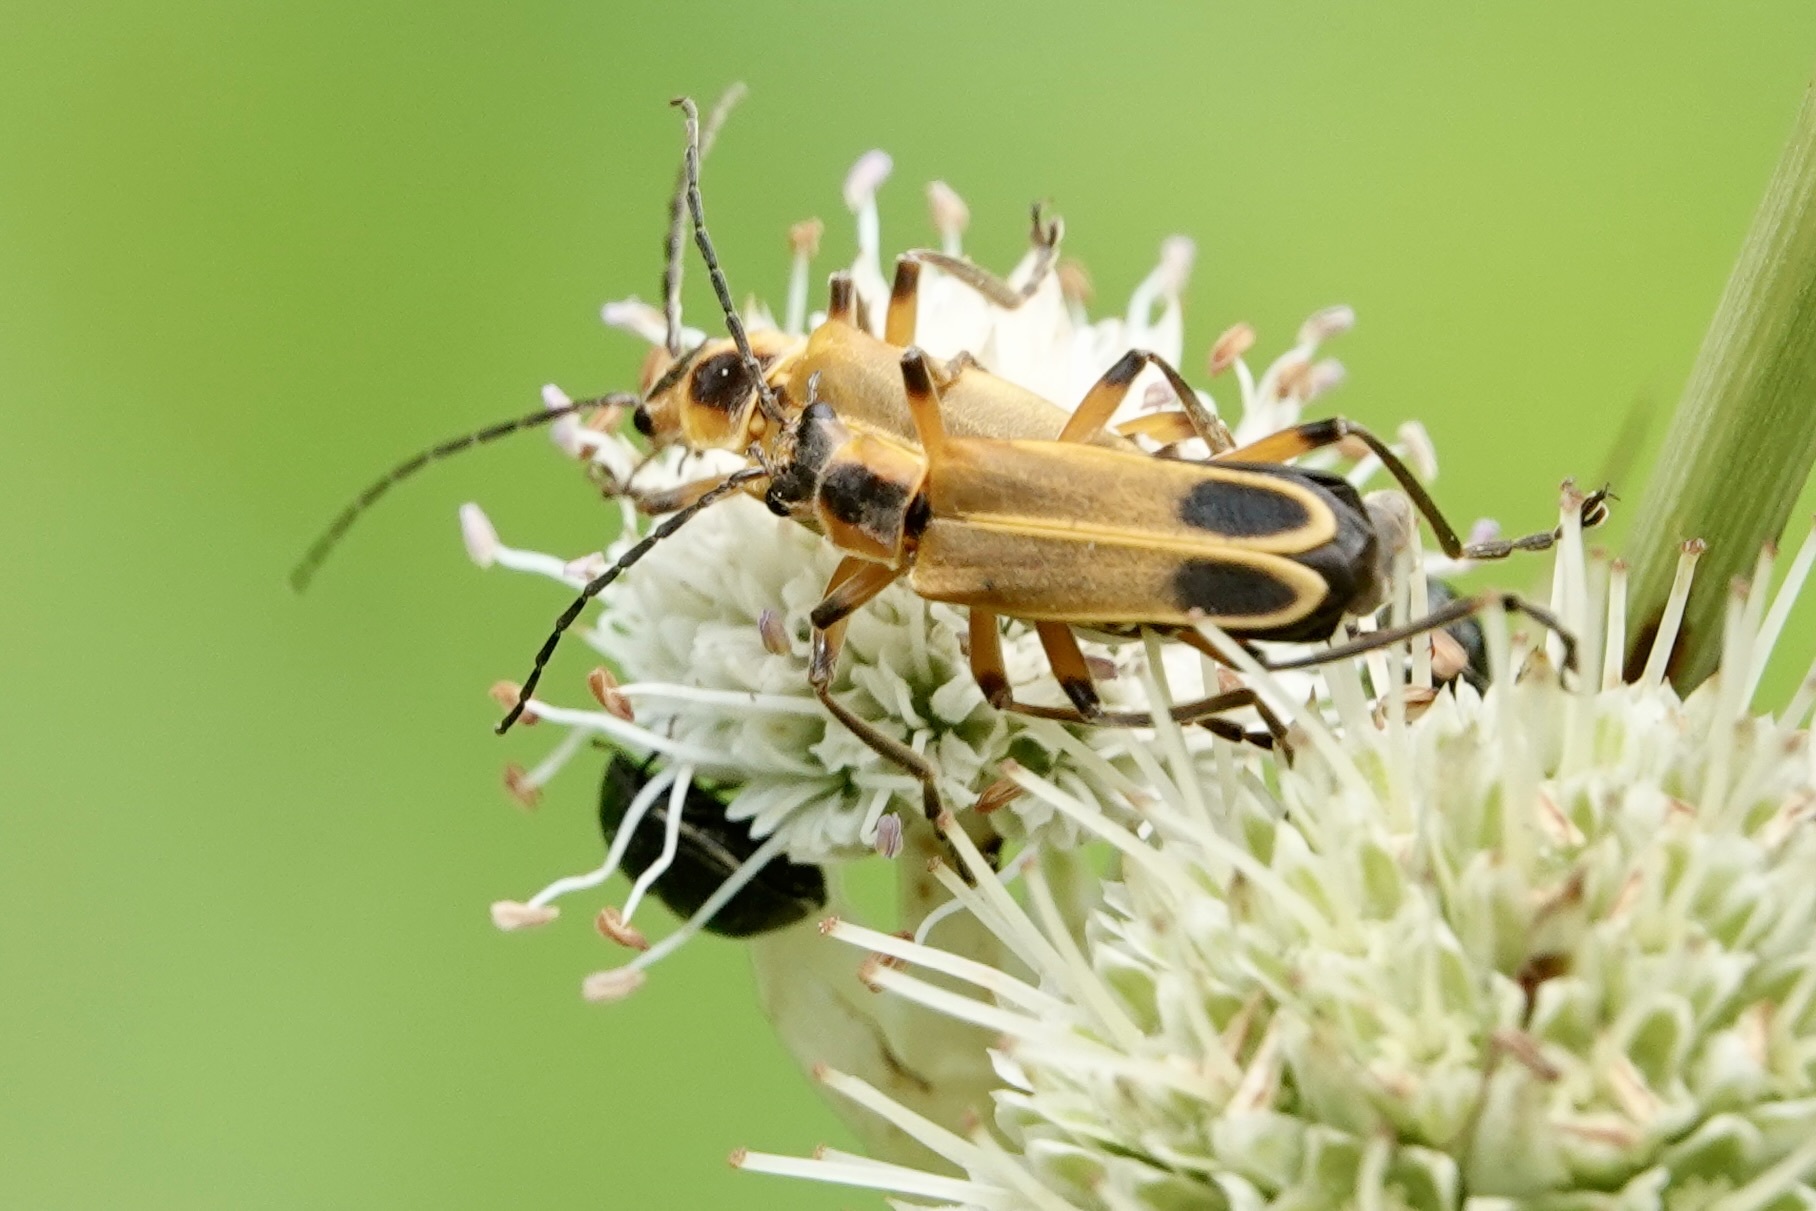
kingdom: Animalia
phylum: Arthropoda
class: Insecta
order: Coleoptera
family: Cantharidae
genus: Chauliognathus
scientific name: Chauliognathus marginatus
